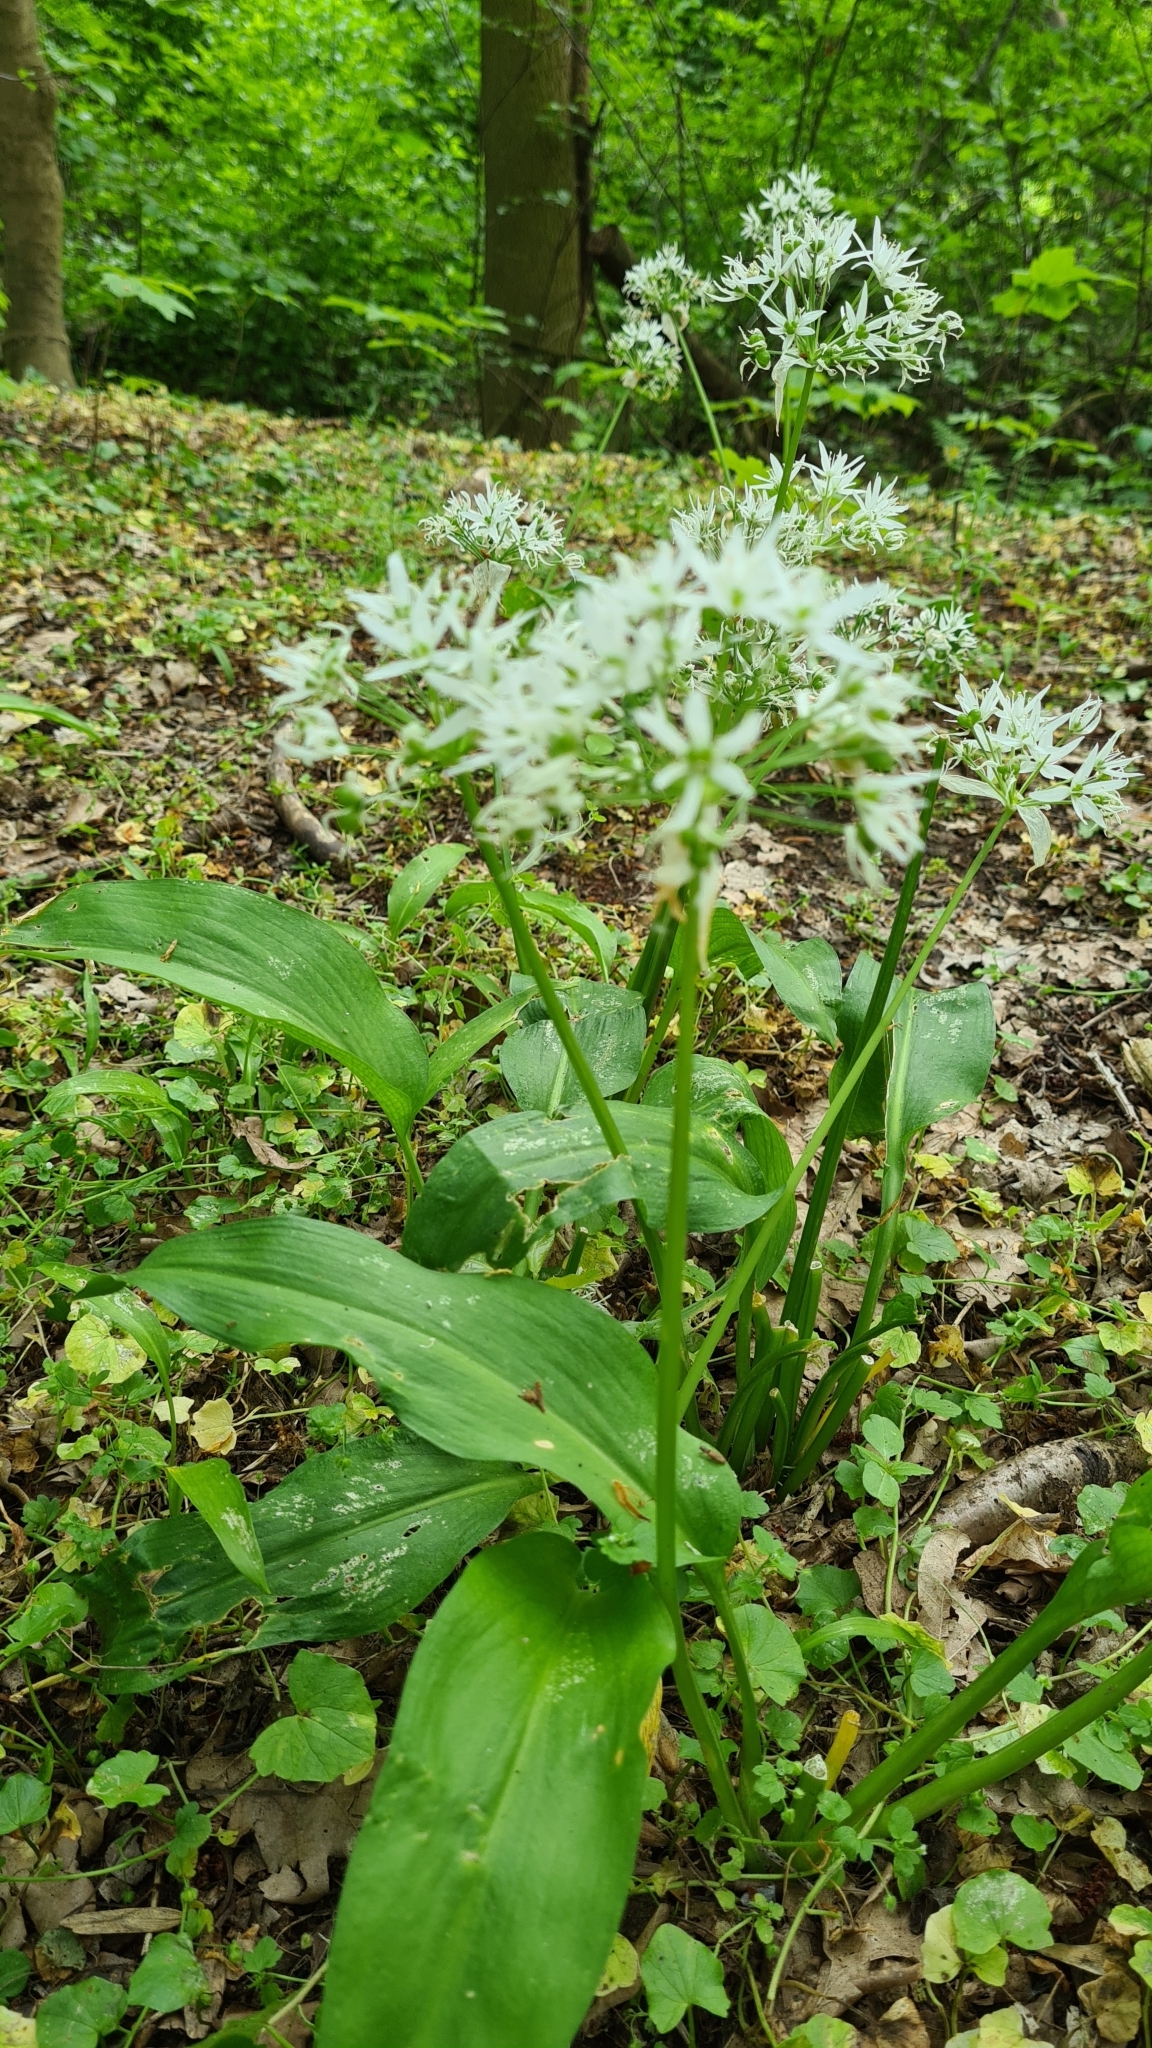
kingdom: Plantae
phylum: Tracheophyta
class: Liliopsida
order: Asparagales
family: Amaryllidaceae
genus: Allium
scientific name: Allium ursinum
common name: Ramsons
